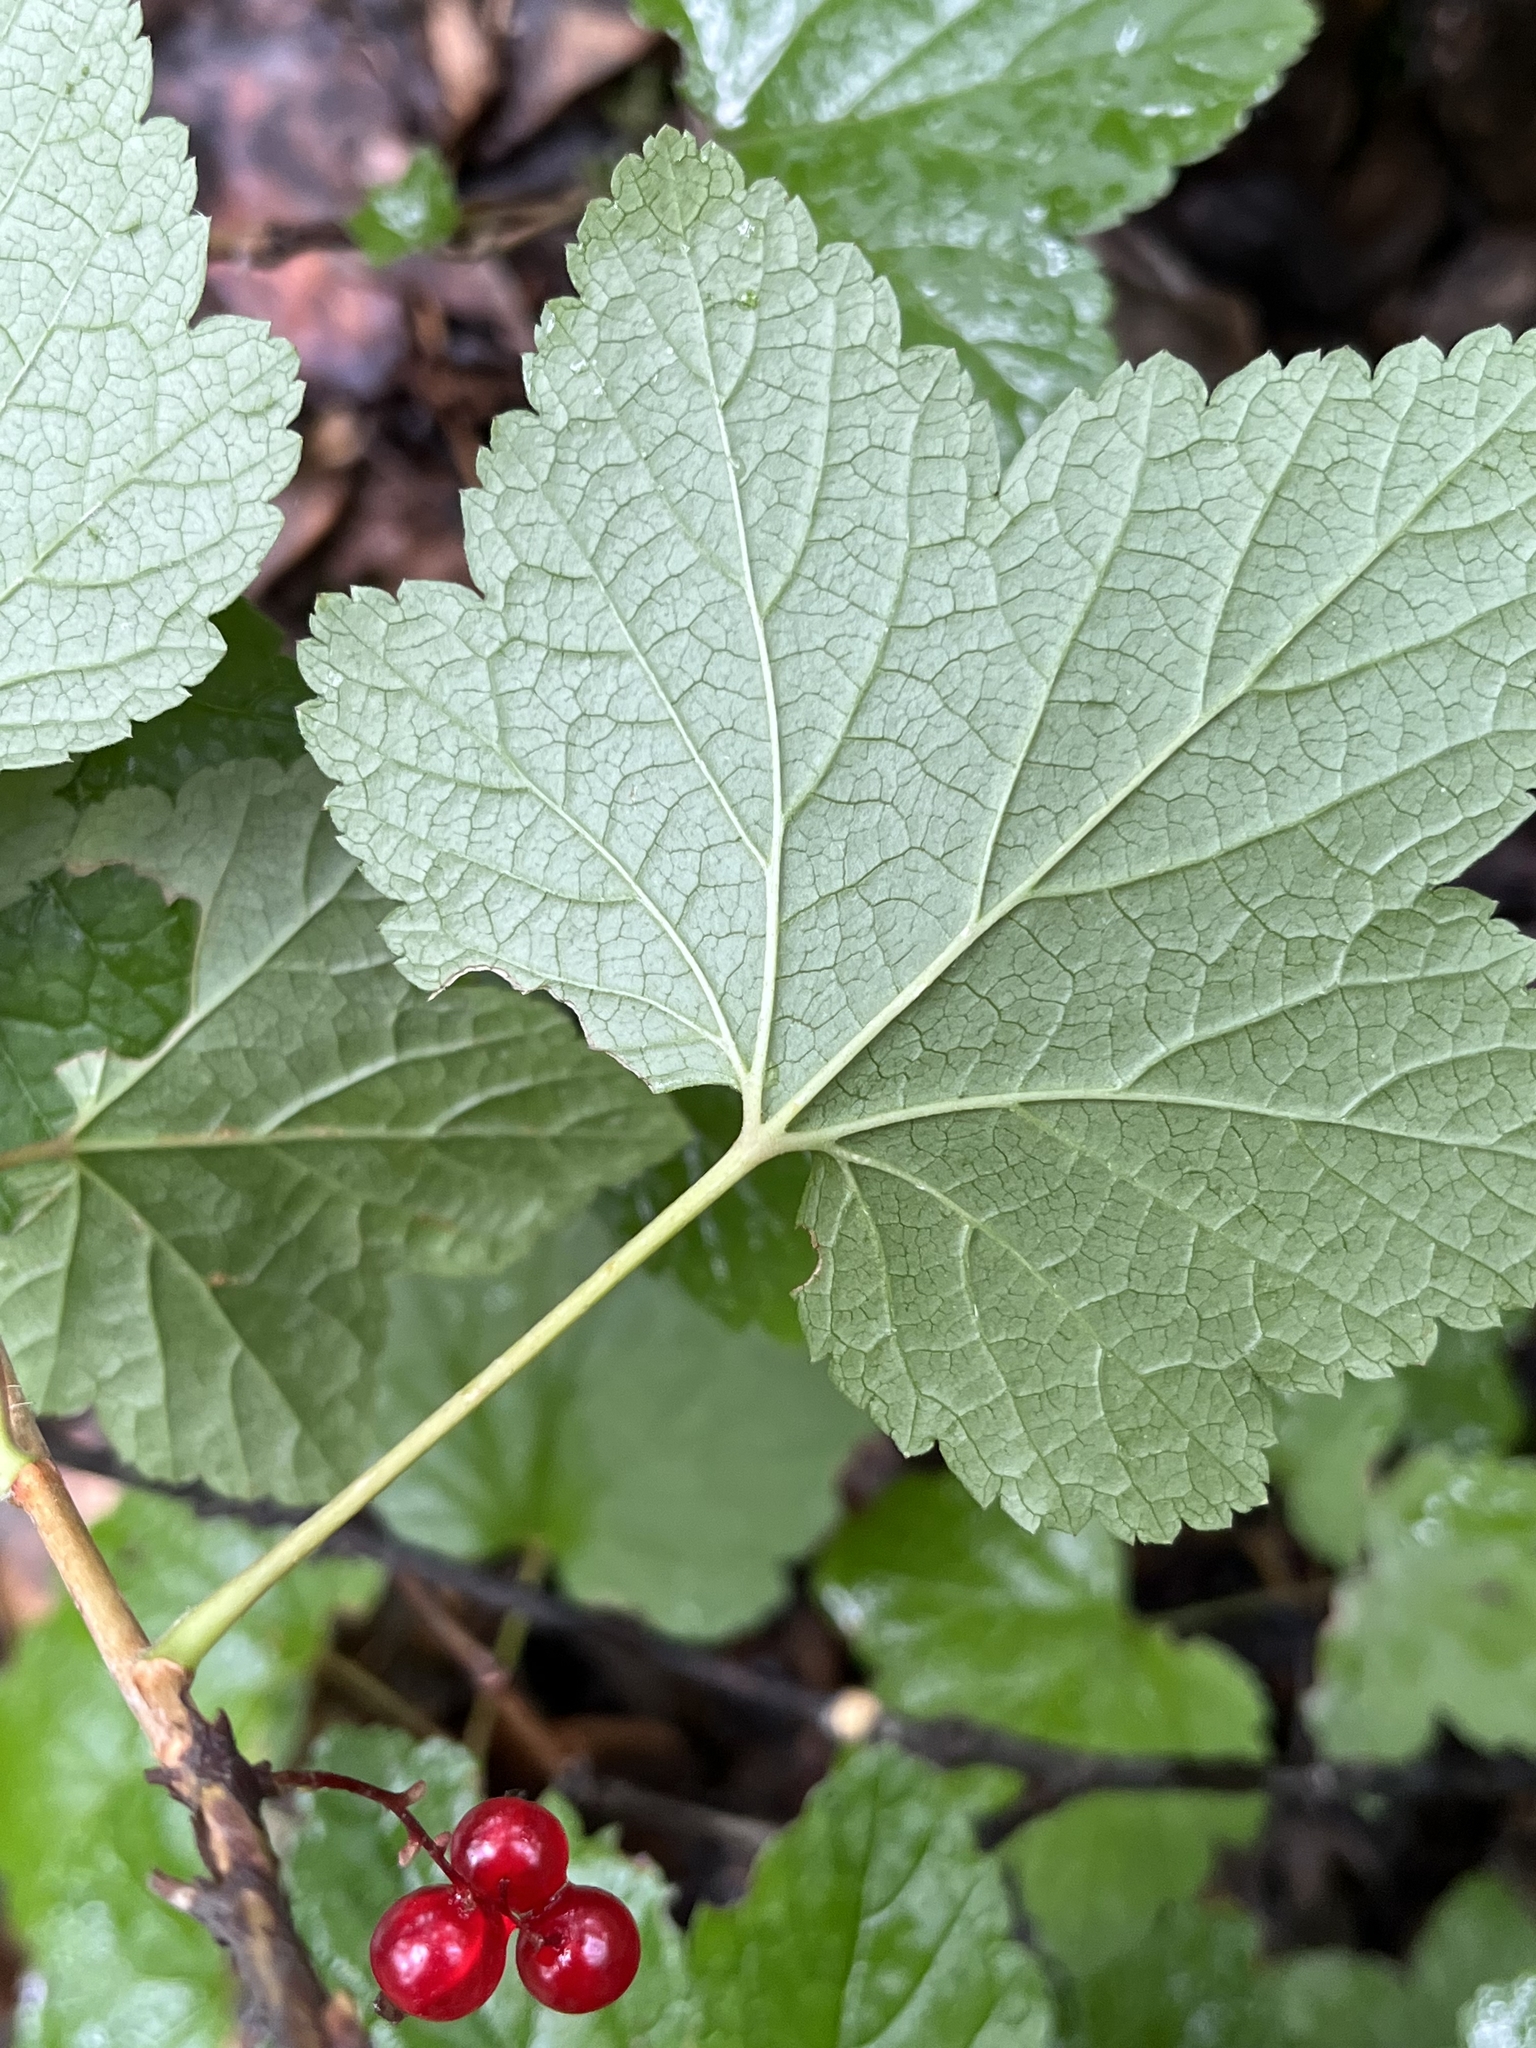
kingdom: Plantae
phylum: Tracheophyta
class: Magnoliopsida
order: Saxifragales
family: Grossulariaceae
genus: Ribes
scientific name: Ribes triste
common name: Swamp red currant
